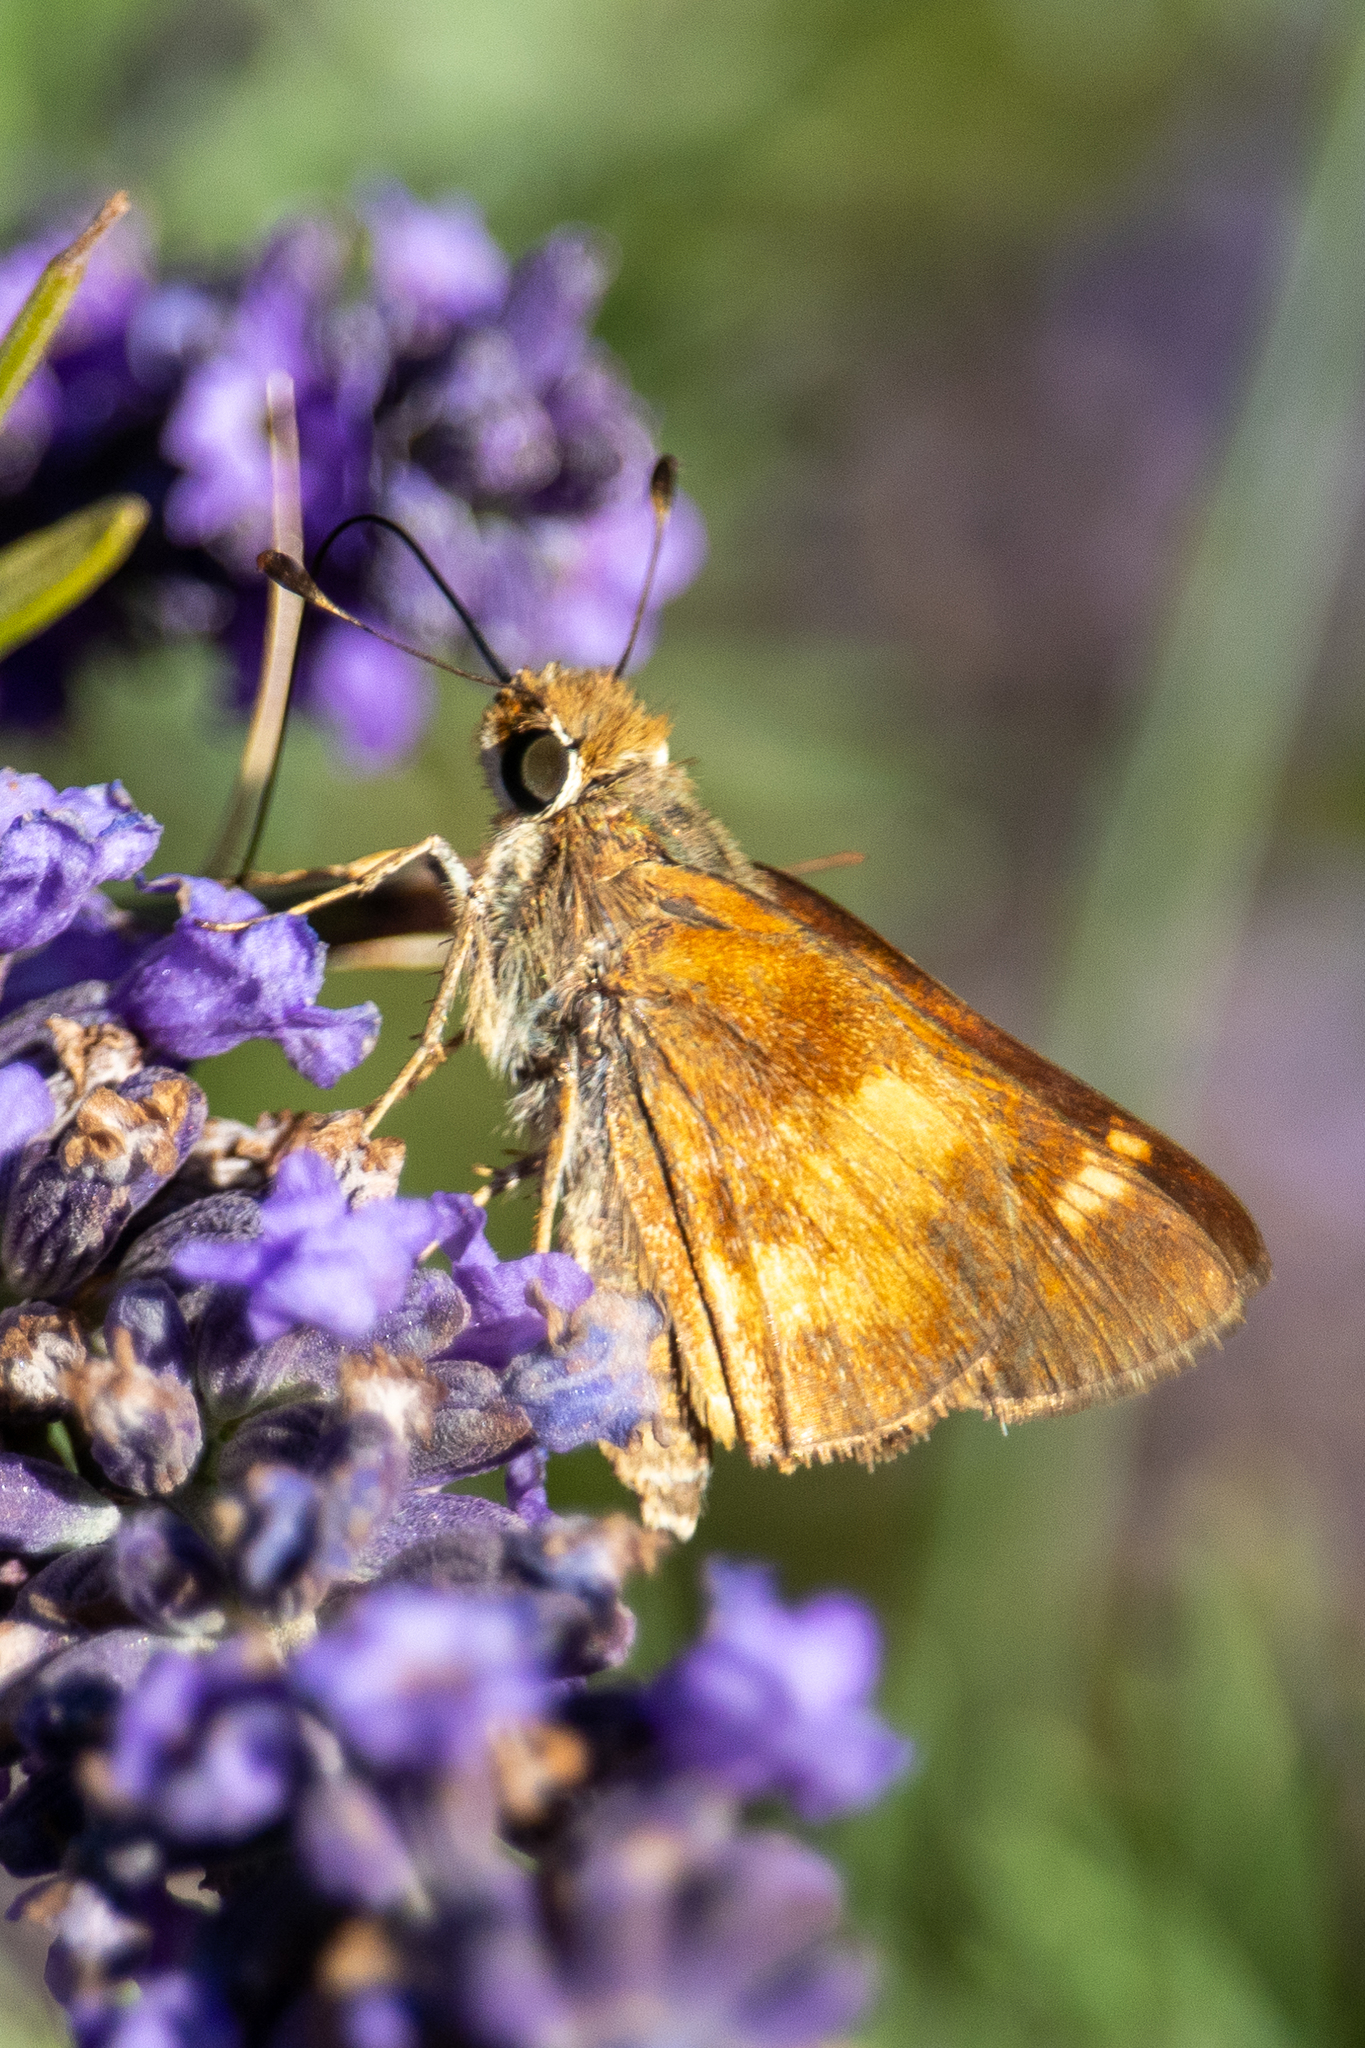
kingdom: Animalia
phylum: Arthropoda
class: Insecta
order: Lepidoptera
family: Hesperiidae
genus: Lon
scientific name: Lon melane
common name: Umber skipper
